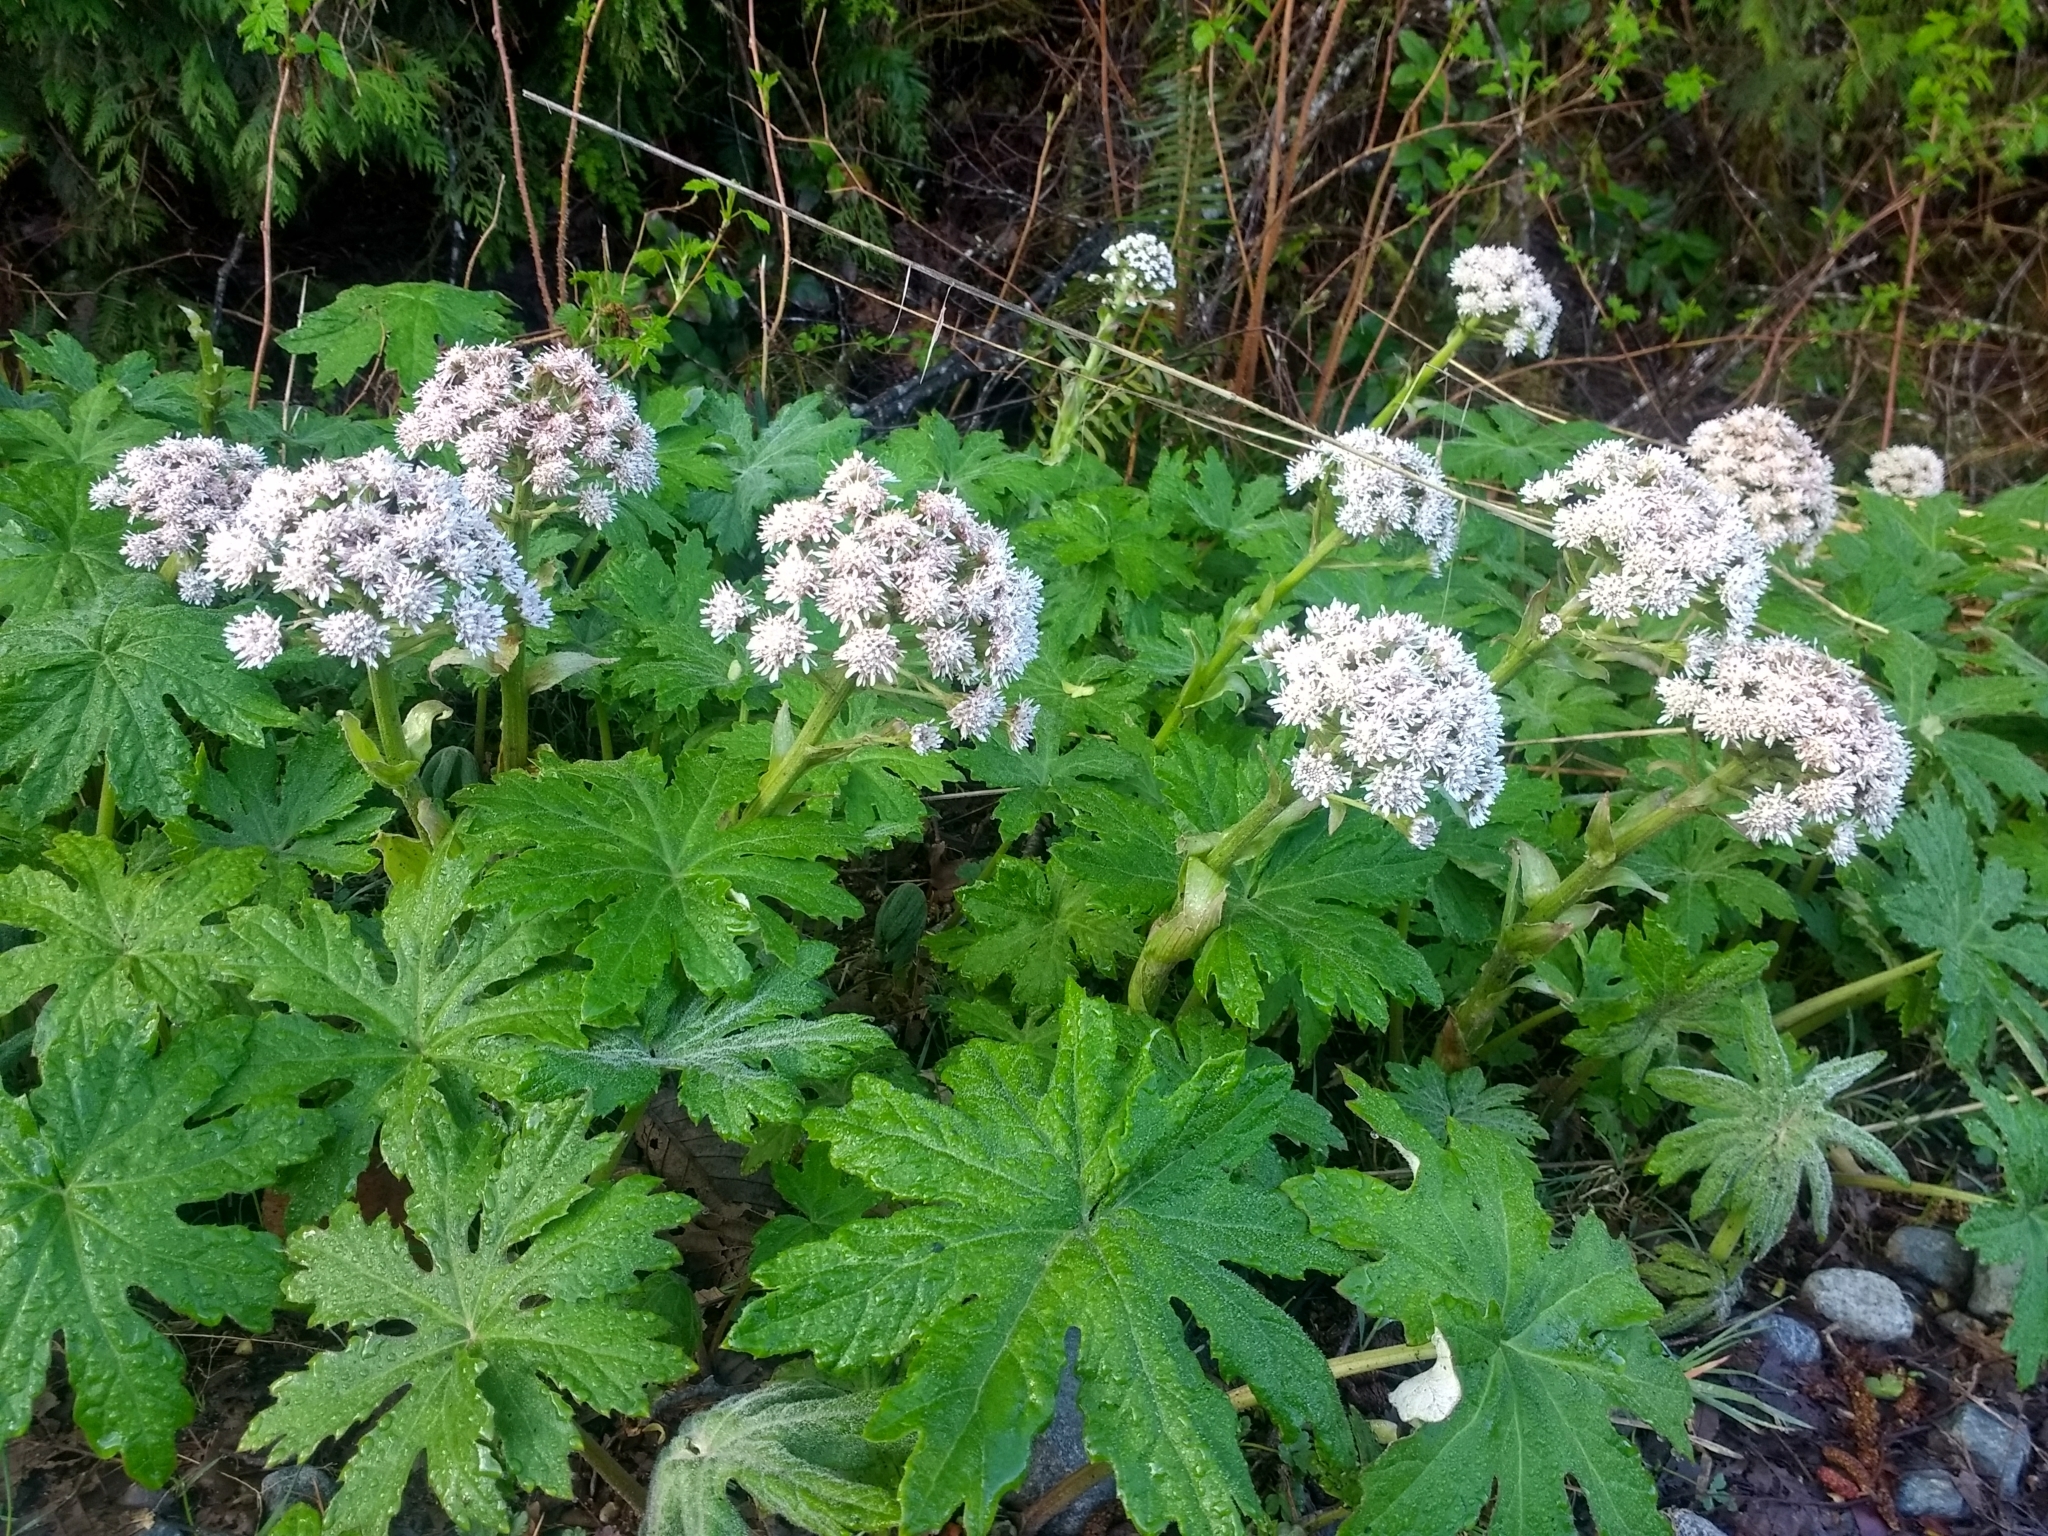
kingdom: Plantae
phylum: Tracheophyta
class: Magnoliopsida
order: Asterales
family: Asteraceae
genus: Petasites
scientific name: Petasites frigidus
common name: Arctic butterbur
